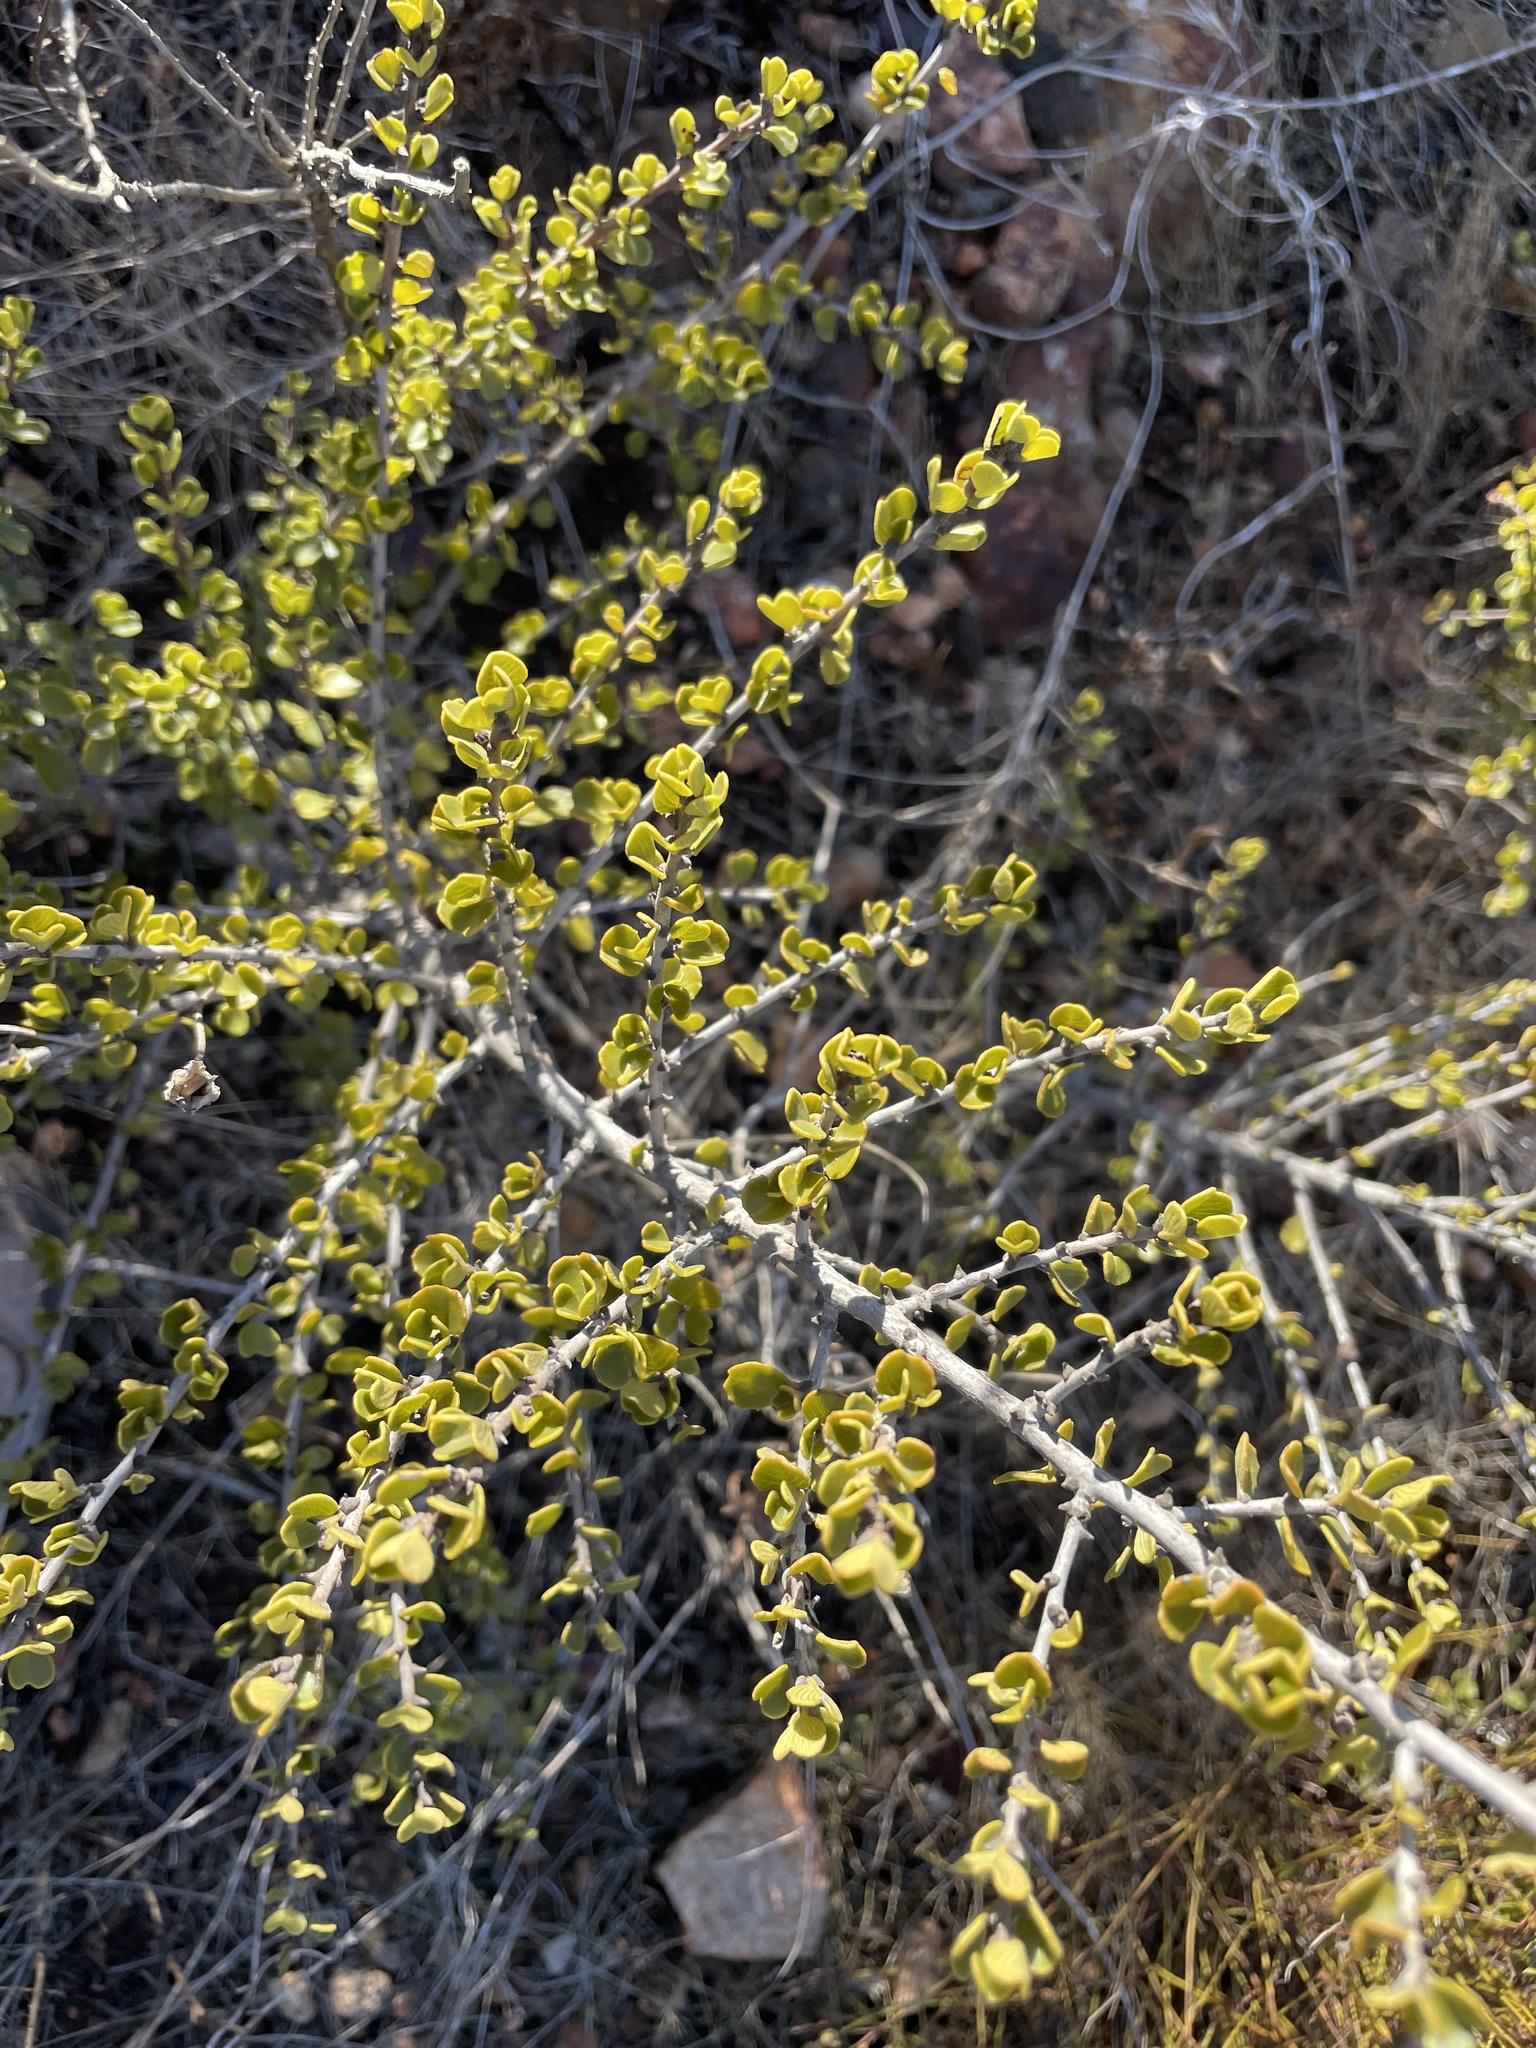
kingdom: Plantae
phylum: Tracheophyta
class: Magnoliopsida
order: Rosales
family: Rhamnaceae
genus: Ceanothus
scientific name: Ceanothus verrucosus
